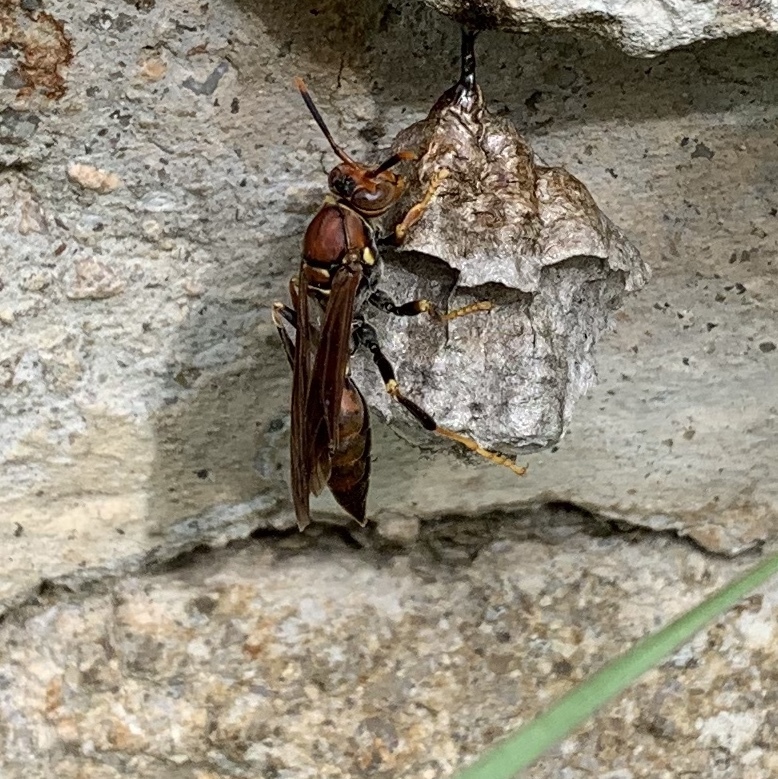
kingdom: Animalia
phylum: Arthropoda
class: Insecta
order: Hymenoptera
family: Eumenidae
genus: Polistes
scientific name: Polistes veracrucis
